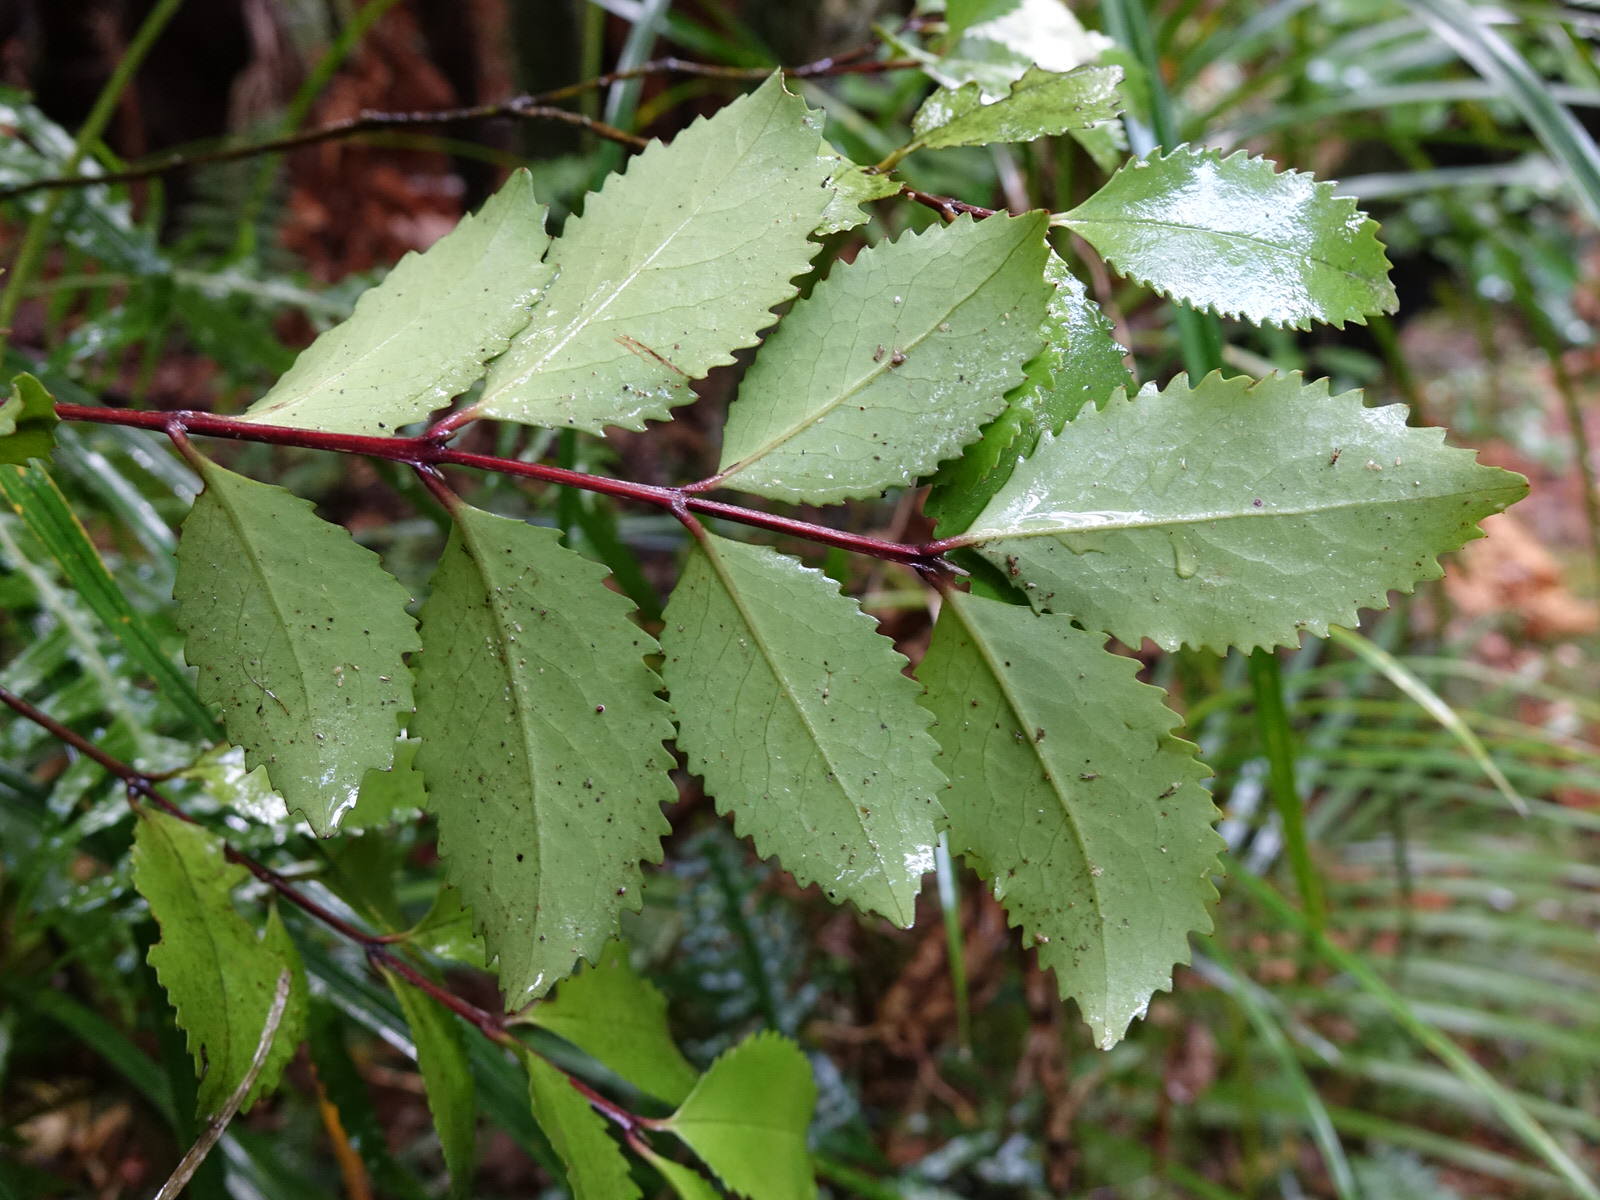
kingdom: Plantae
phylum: Tracheophyta
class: Magnoliopsida
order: Laurales
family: Atherospermataceae
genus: Laurelia
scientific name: Laurelia novae-zelandiae
